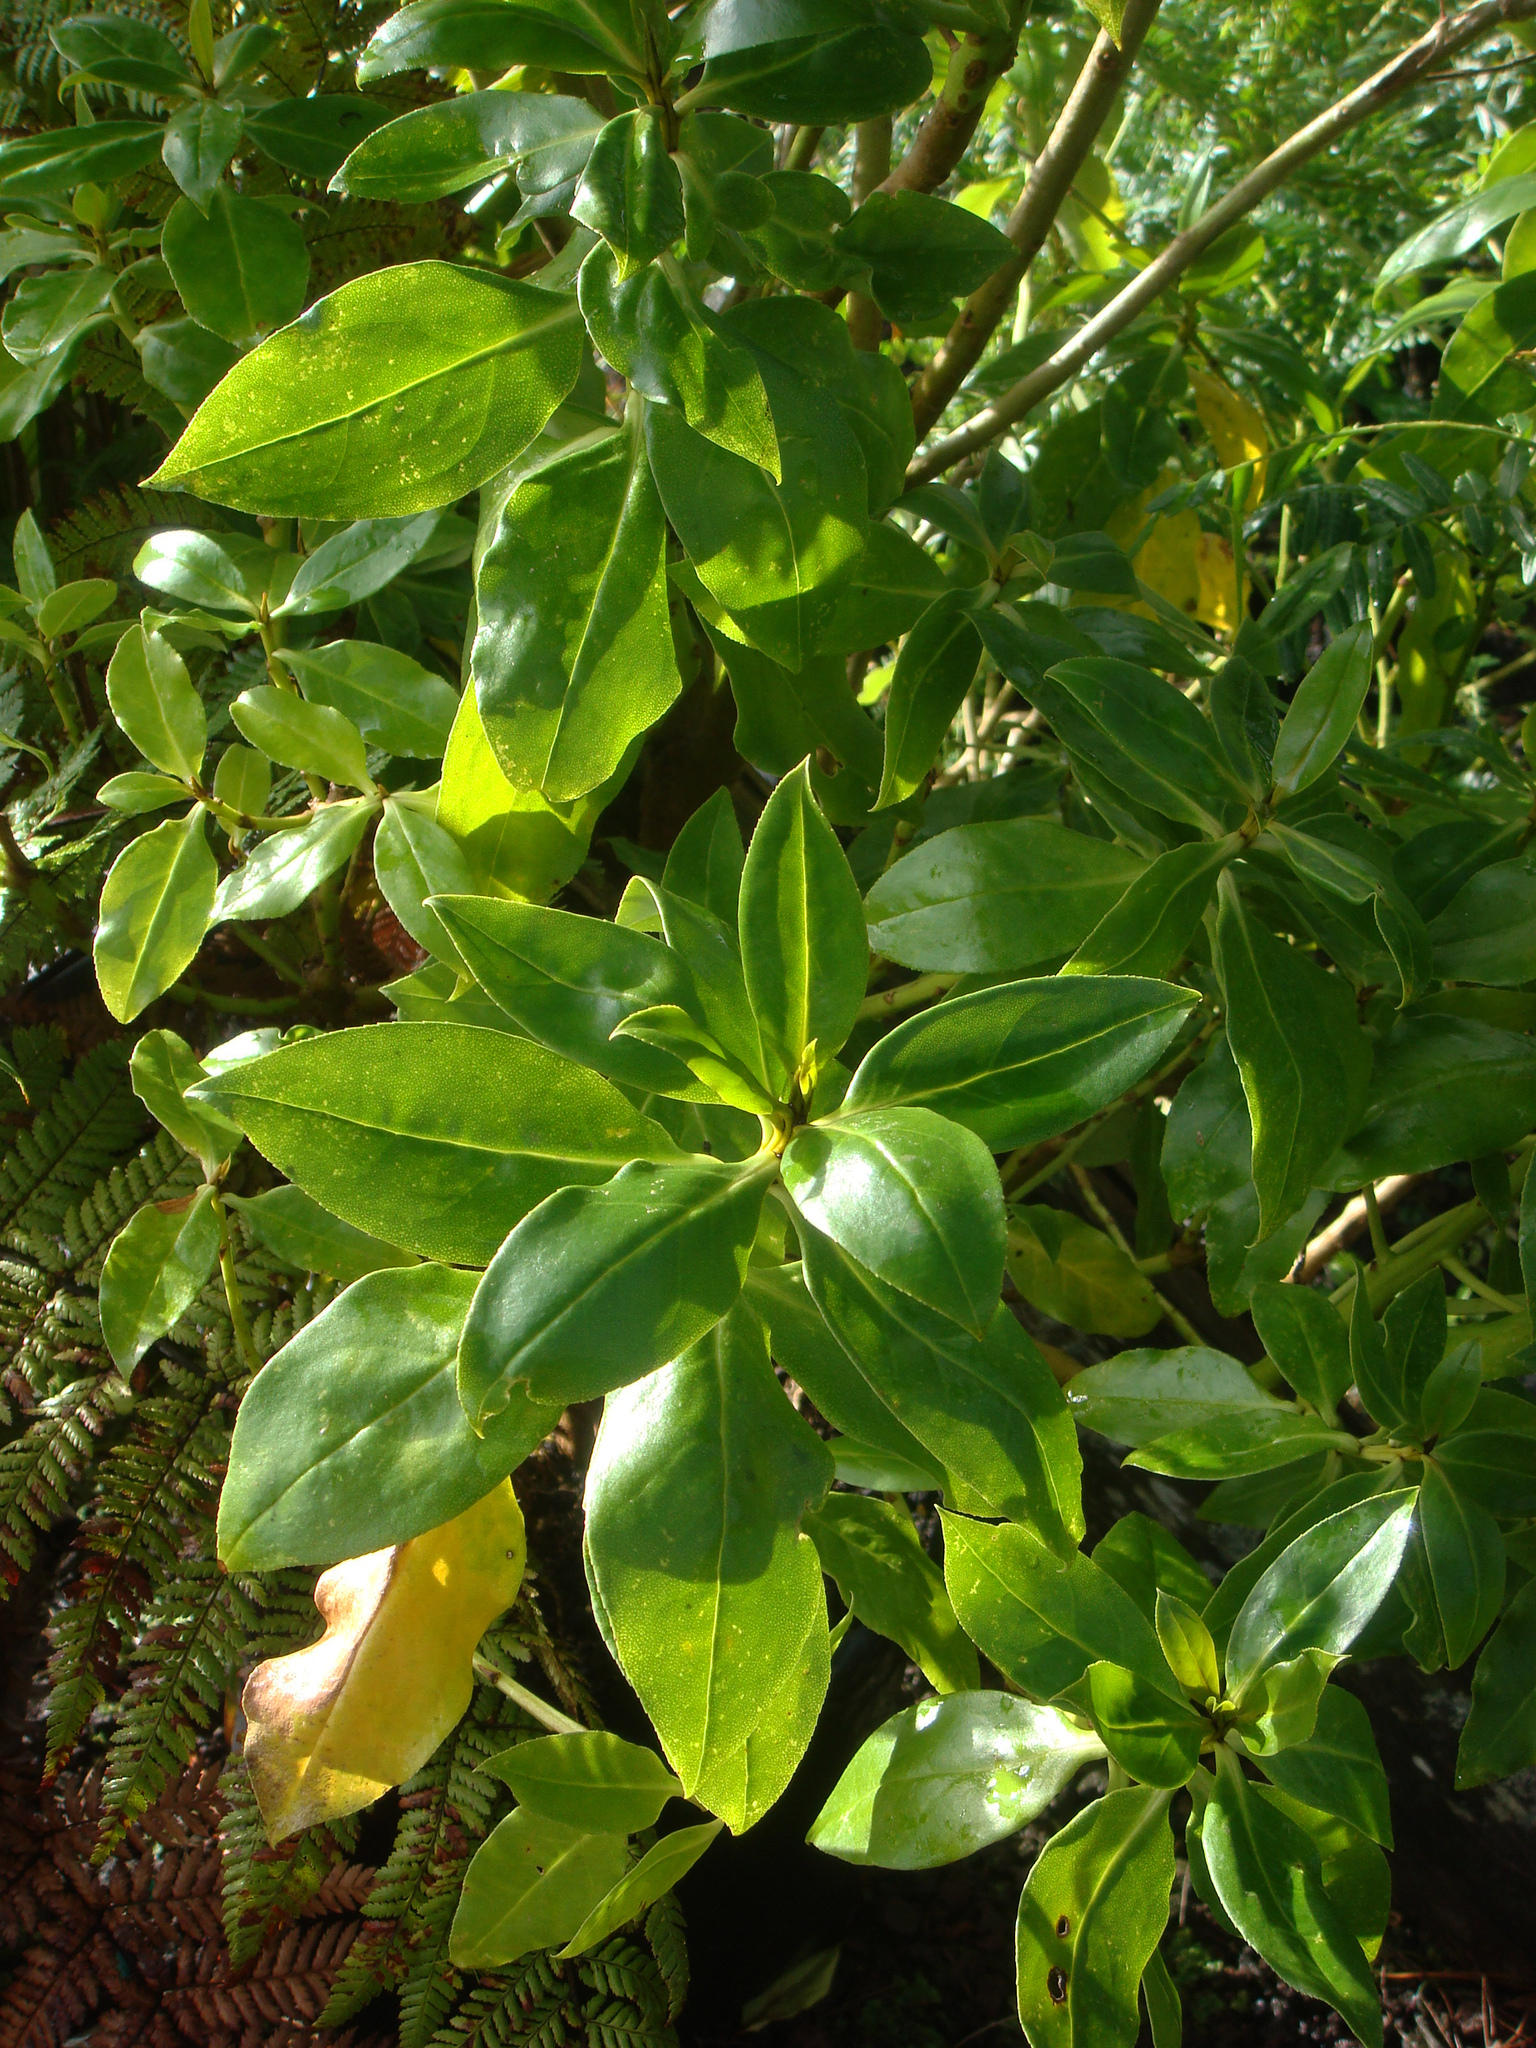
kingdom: Plantae
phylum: Tracheophyta
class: Magnoliopsida
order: Lamiales
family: Scrophulariaceae
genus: Myoporum
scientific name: Myoporum semotum
